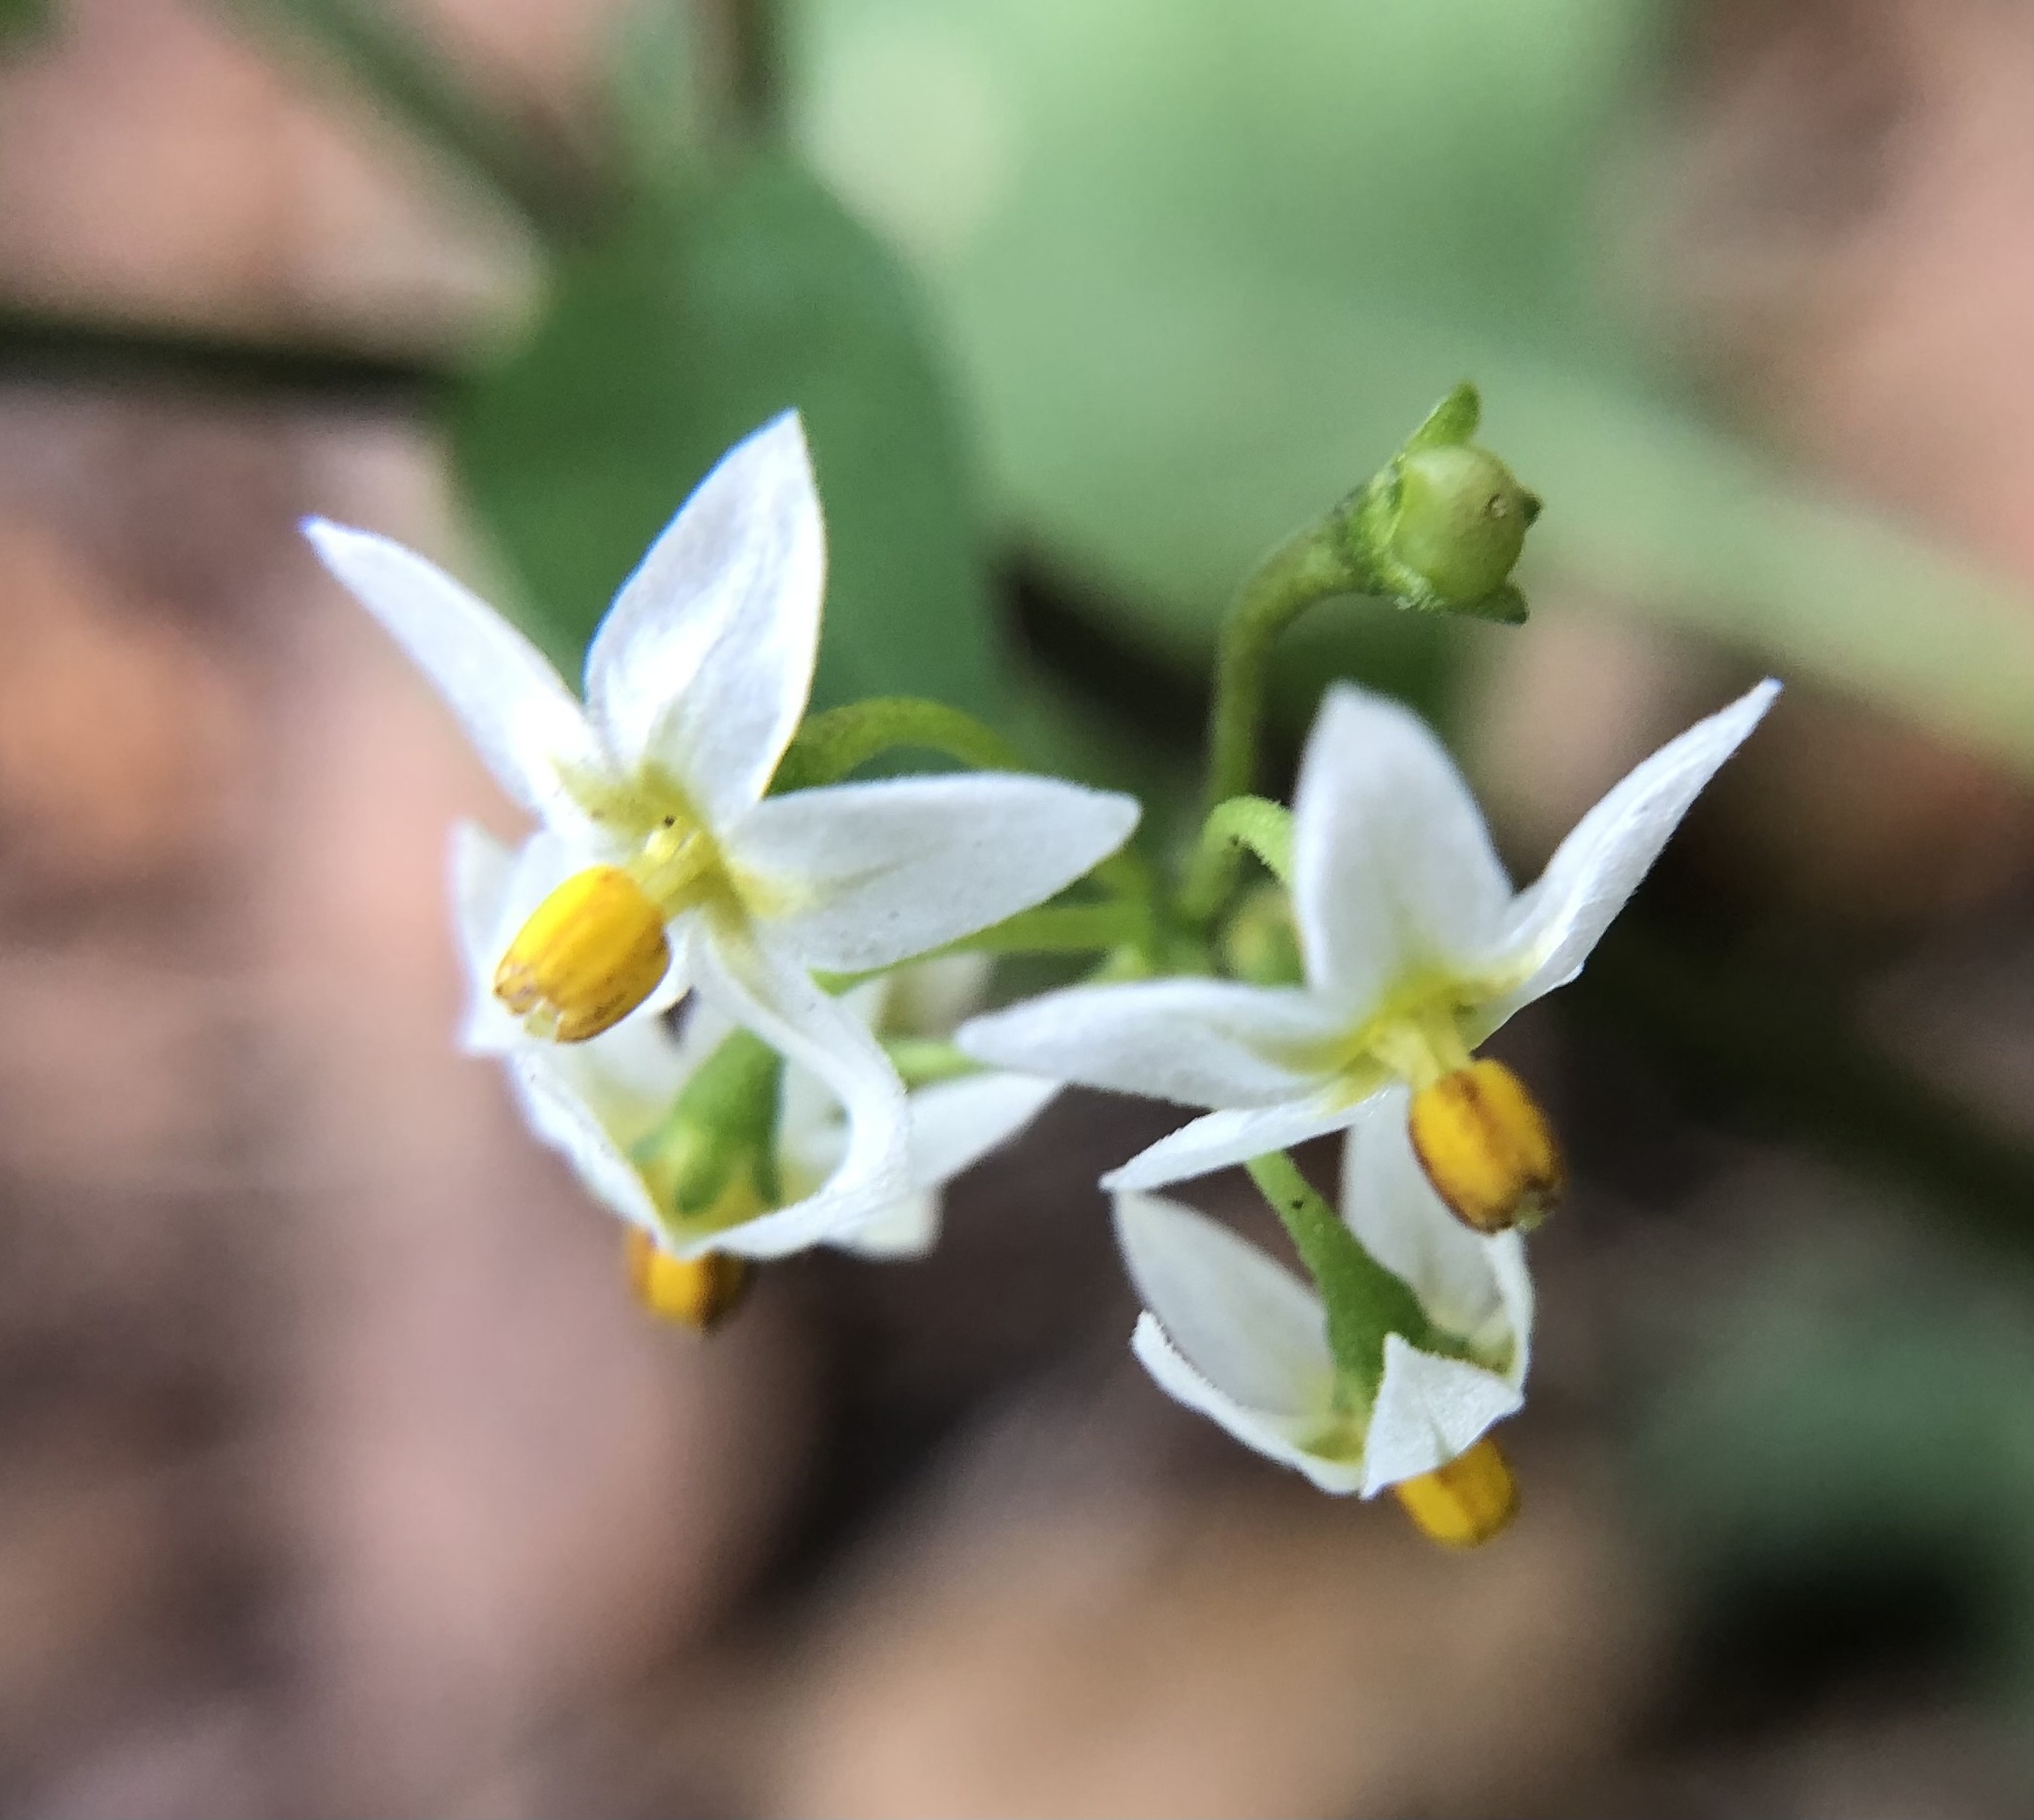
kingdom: Plantae
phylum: Tracheophyta
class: Magnoliopsida
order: Solanales
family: Solanaceae
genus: Solanum
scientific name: Solanum americanum
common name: American black nightshade
